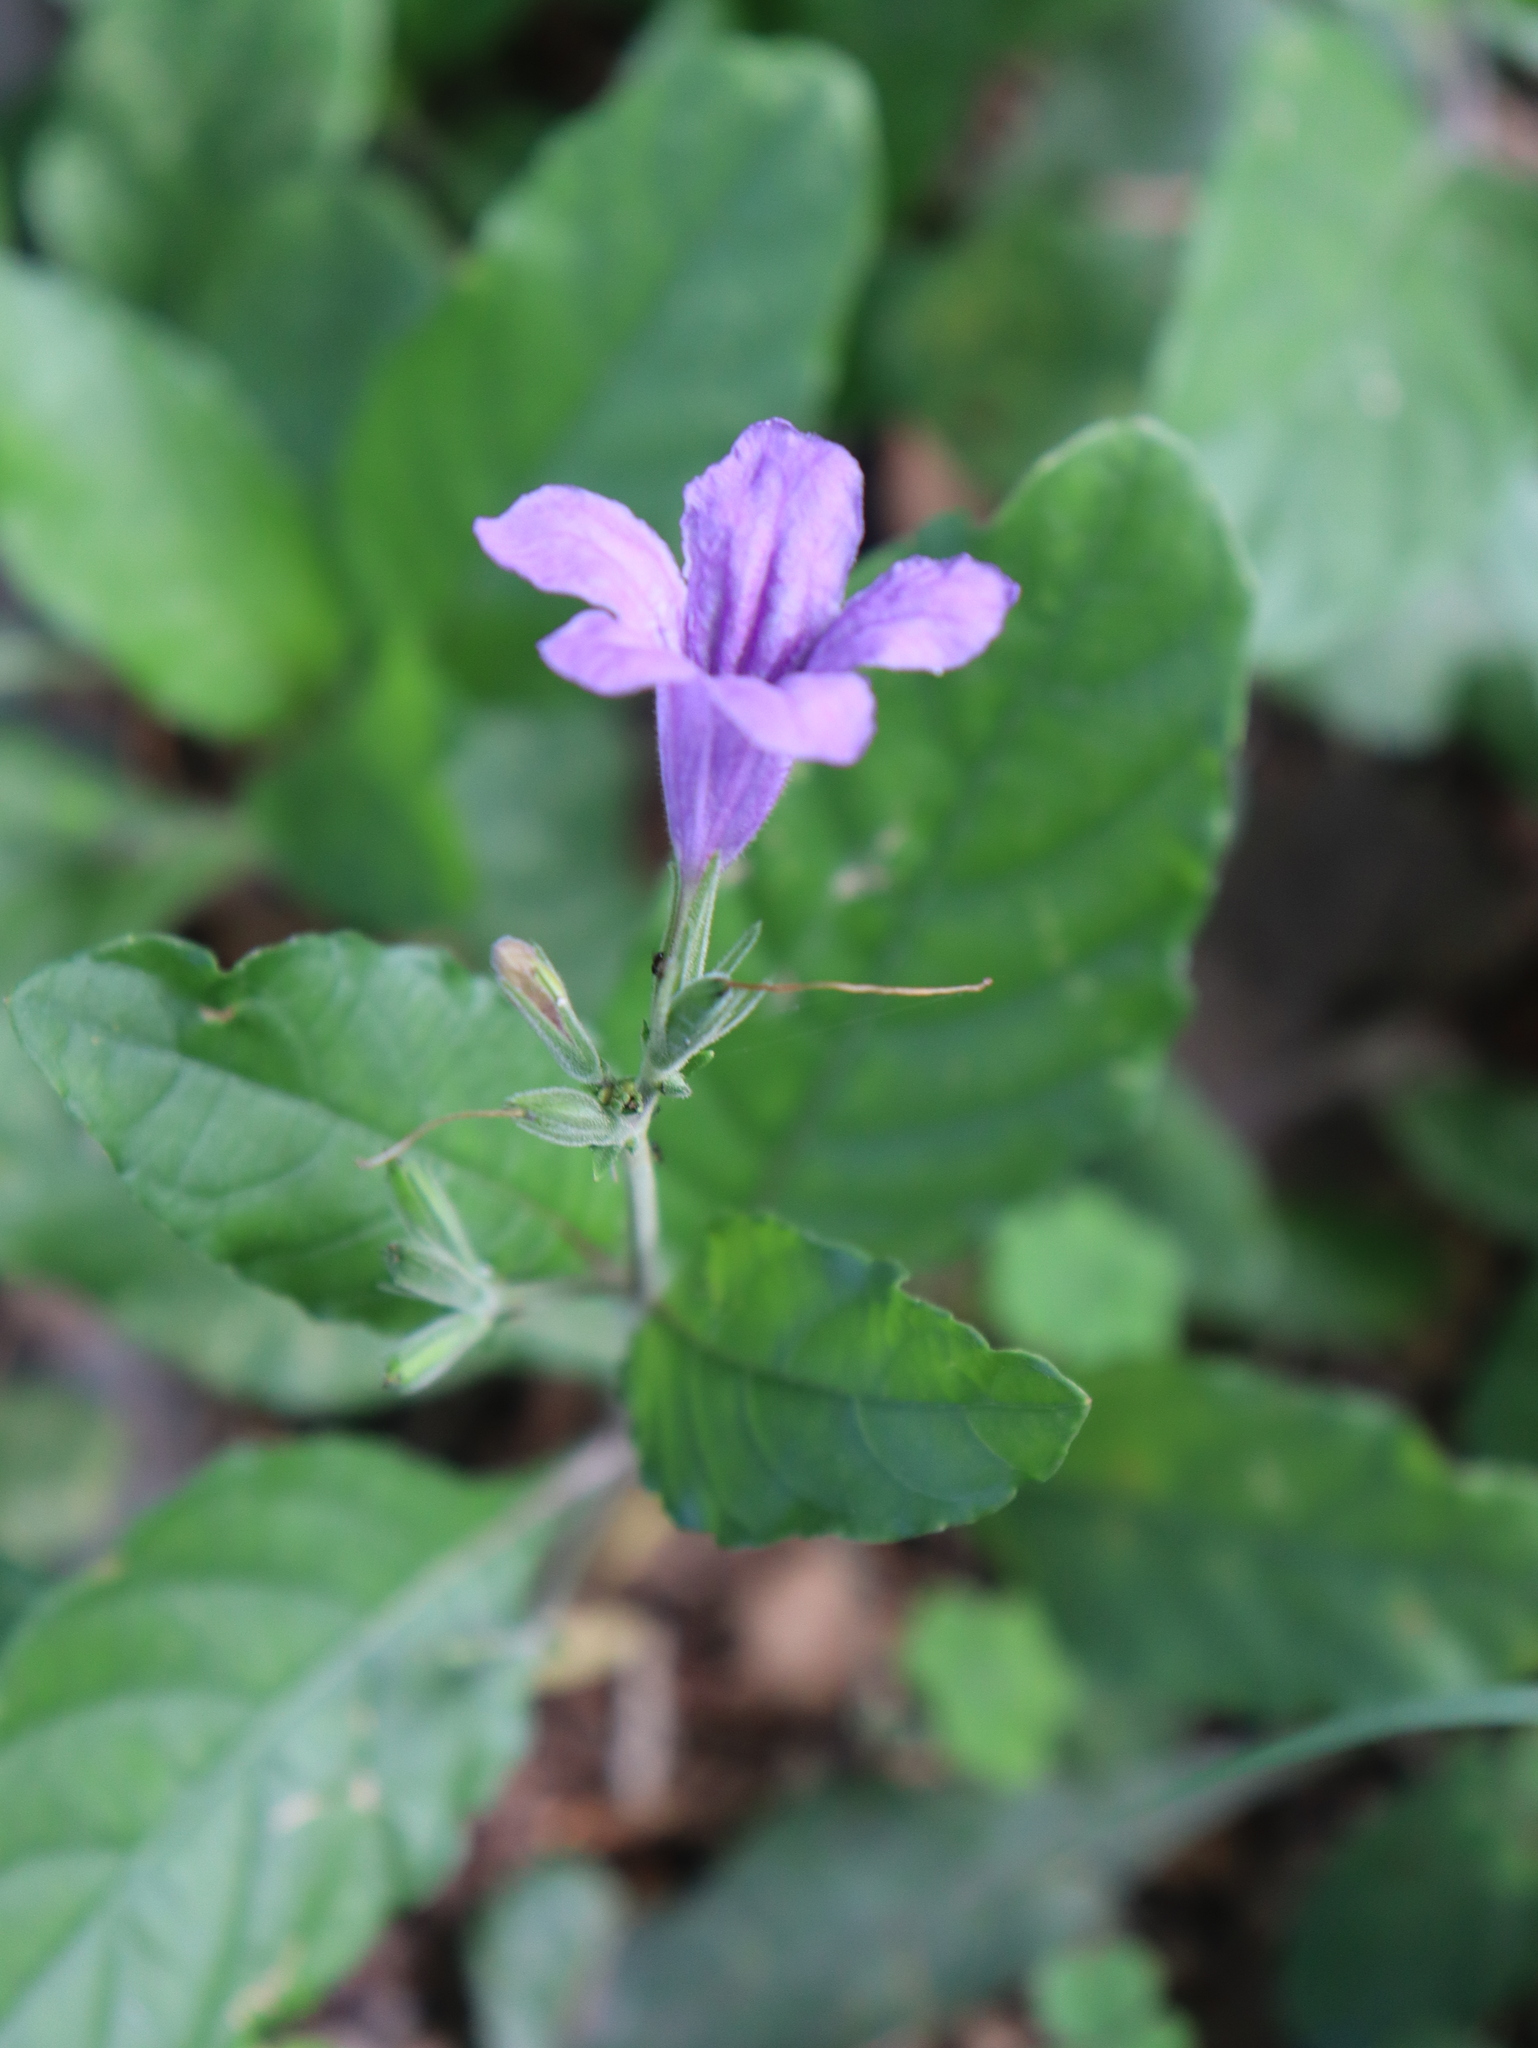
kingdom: Plantae
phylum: Tracheophyta
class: Magnoliopsida
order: Lamiales
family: Acanthaceae
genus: Ruellia
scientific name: Ruellia ciliatiflora
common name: Hairyflower wild petunia
